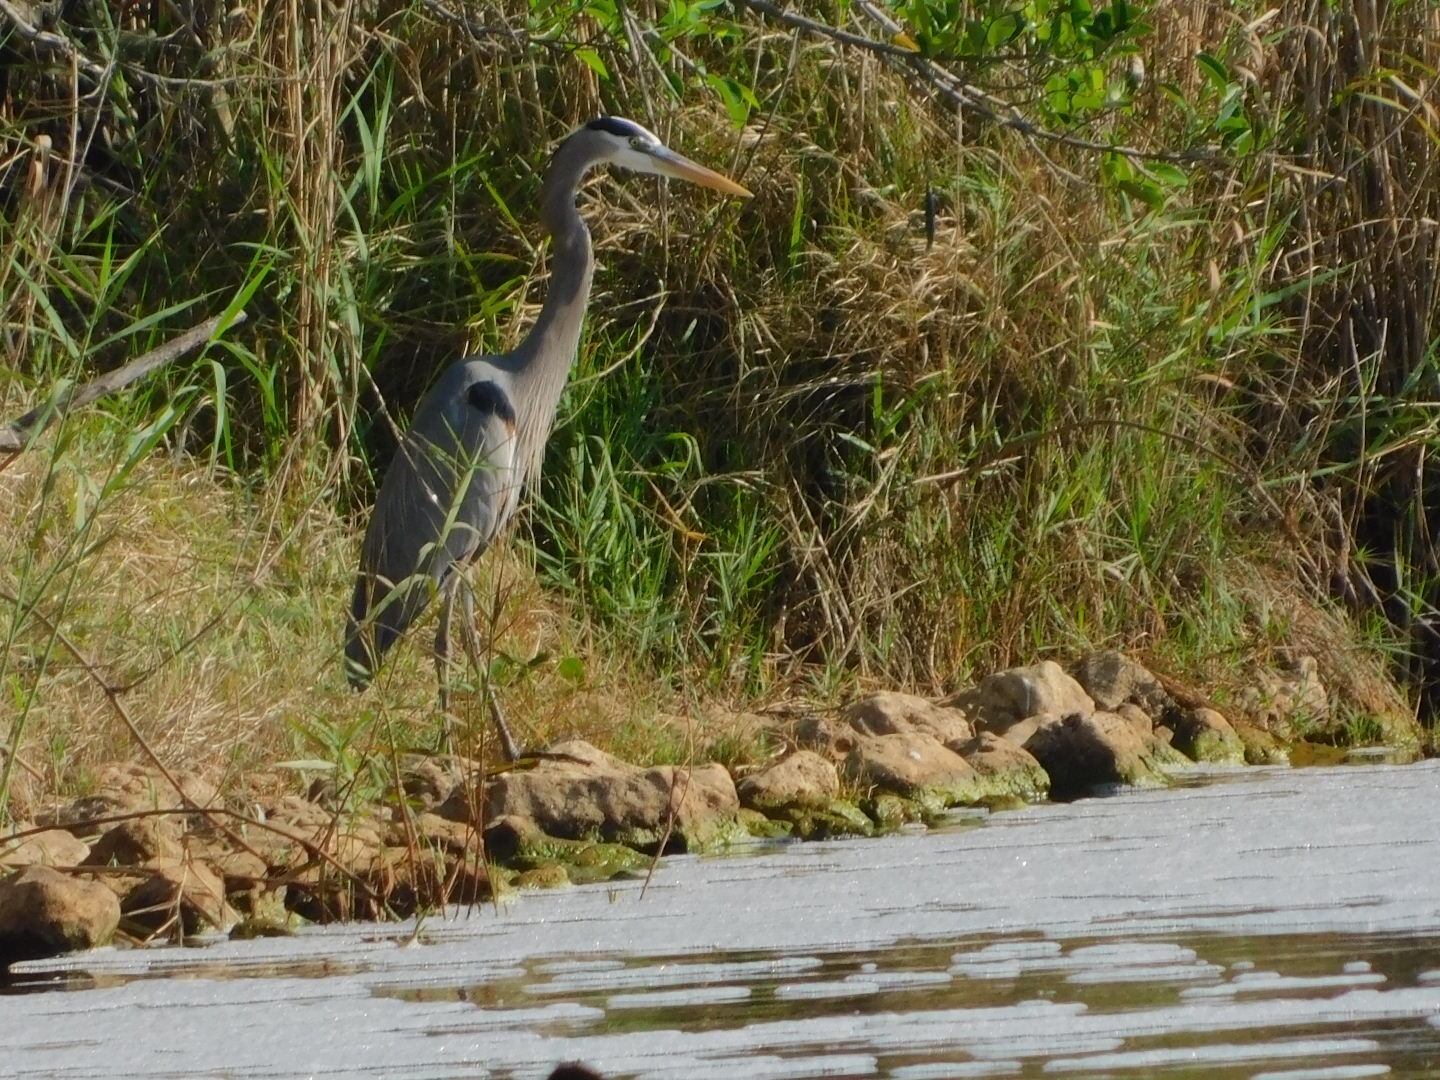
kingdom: Animalia
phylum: Chordata
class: Aves
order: Pelecaniformes
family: Ardeidae
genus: Ardea
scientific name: Ardea herodias
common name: Great blue heron
